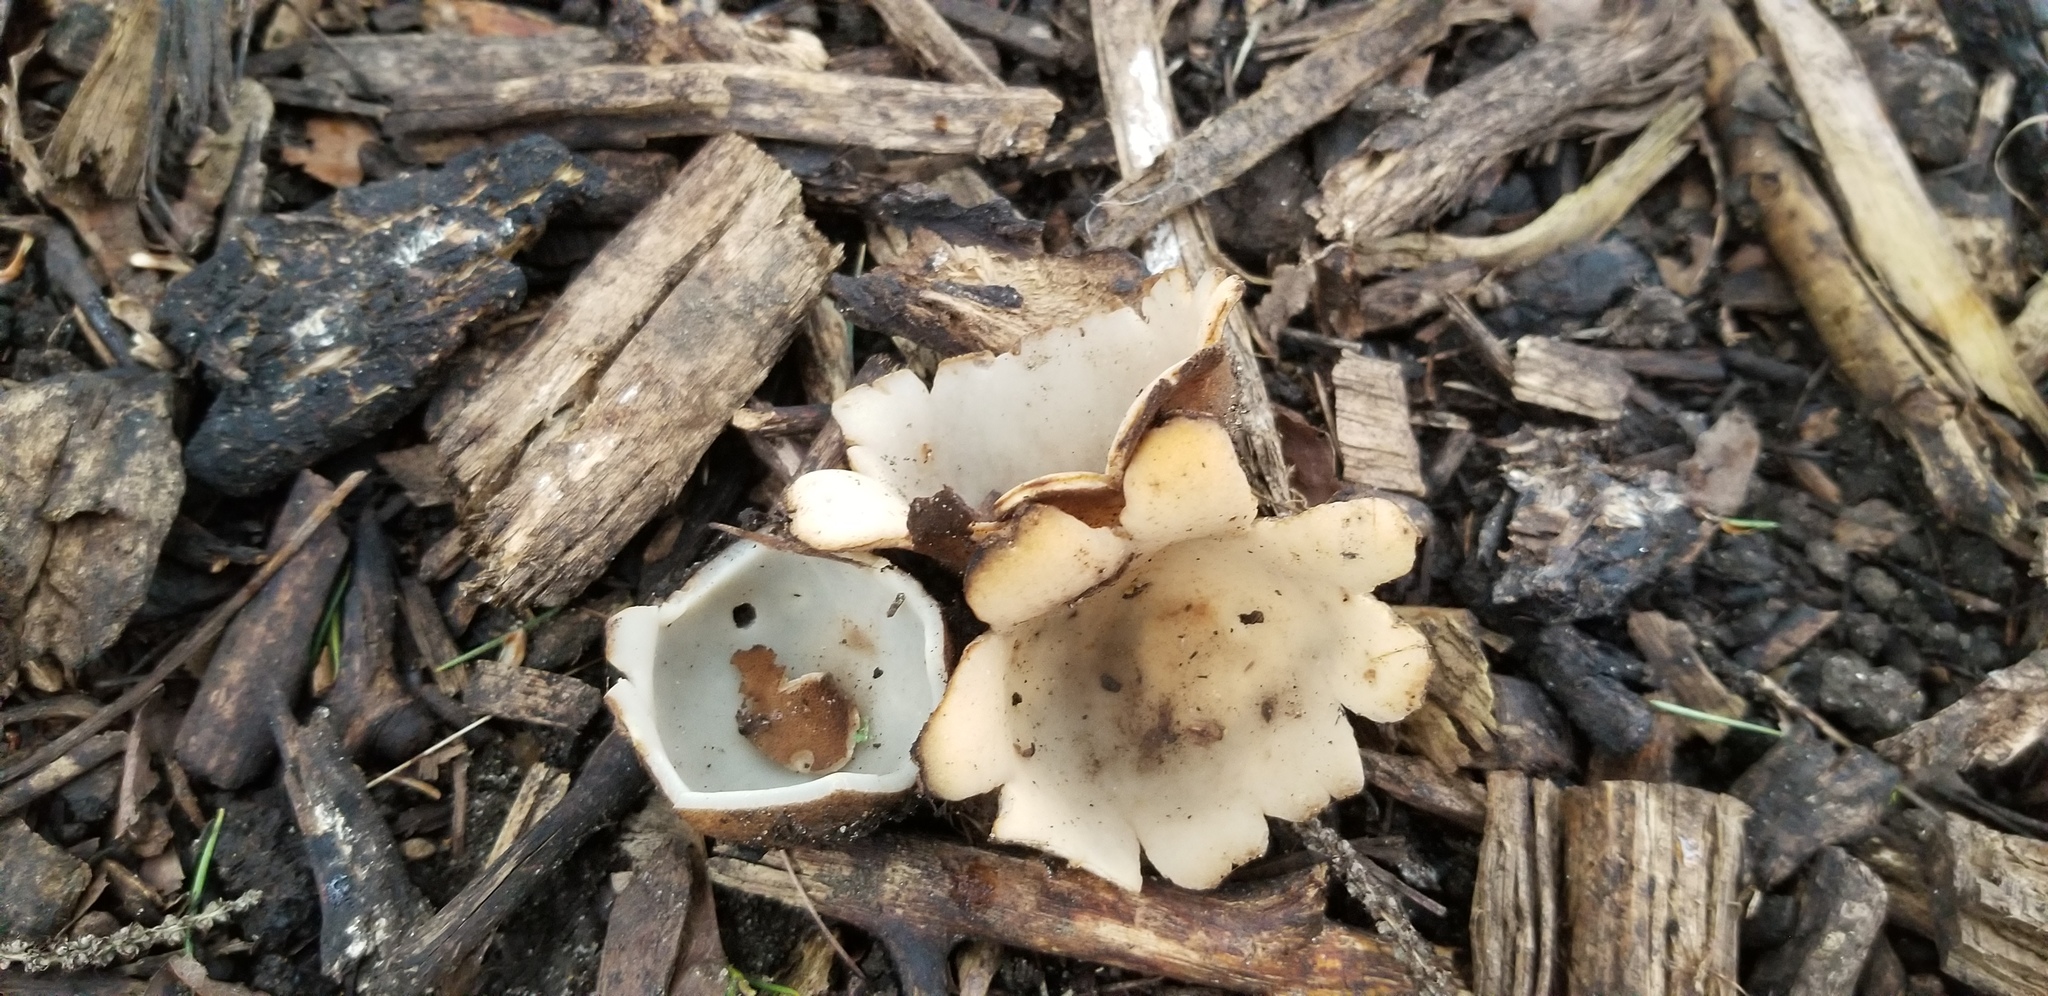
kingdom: Fungi
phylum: Ascomycota
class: Pezizomycetes
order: Pezizales
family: Pyronemataceae
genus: Geopora
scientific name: Geopora sumneriana
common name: Cedar cup
